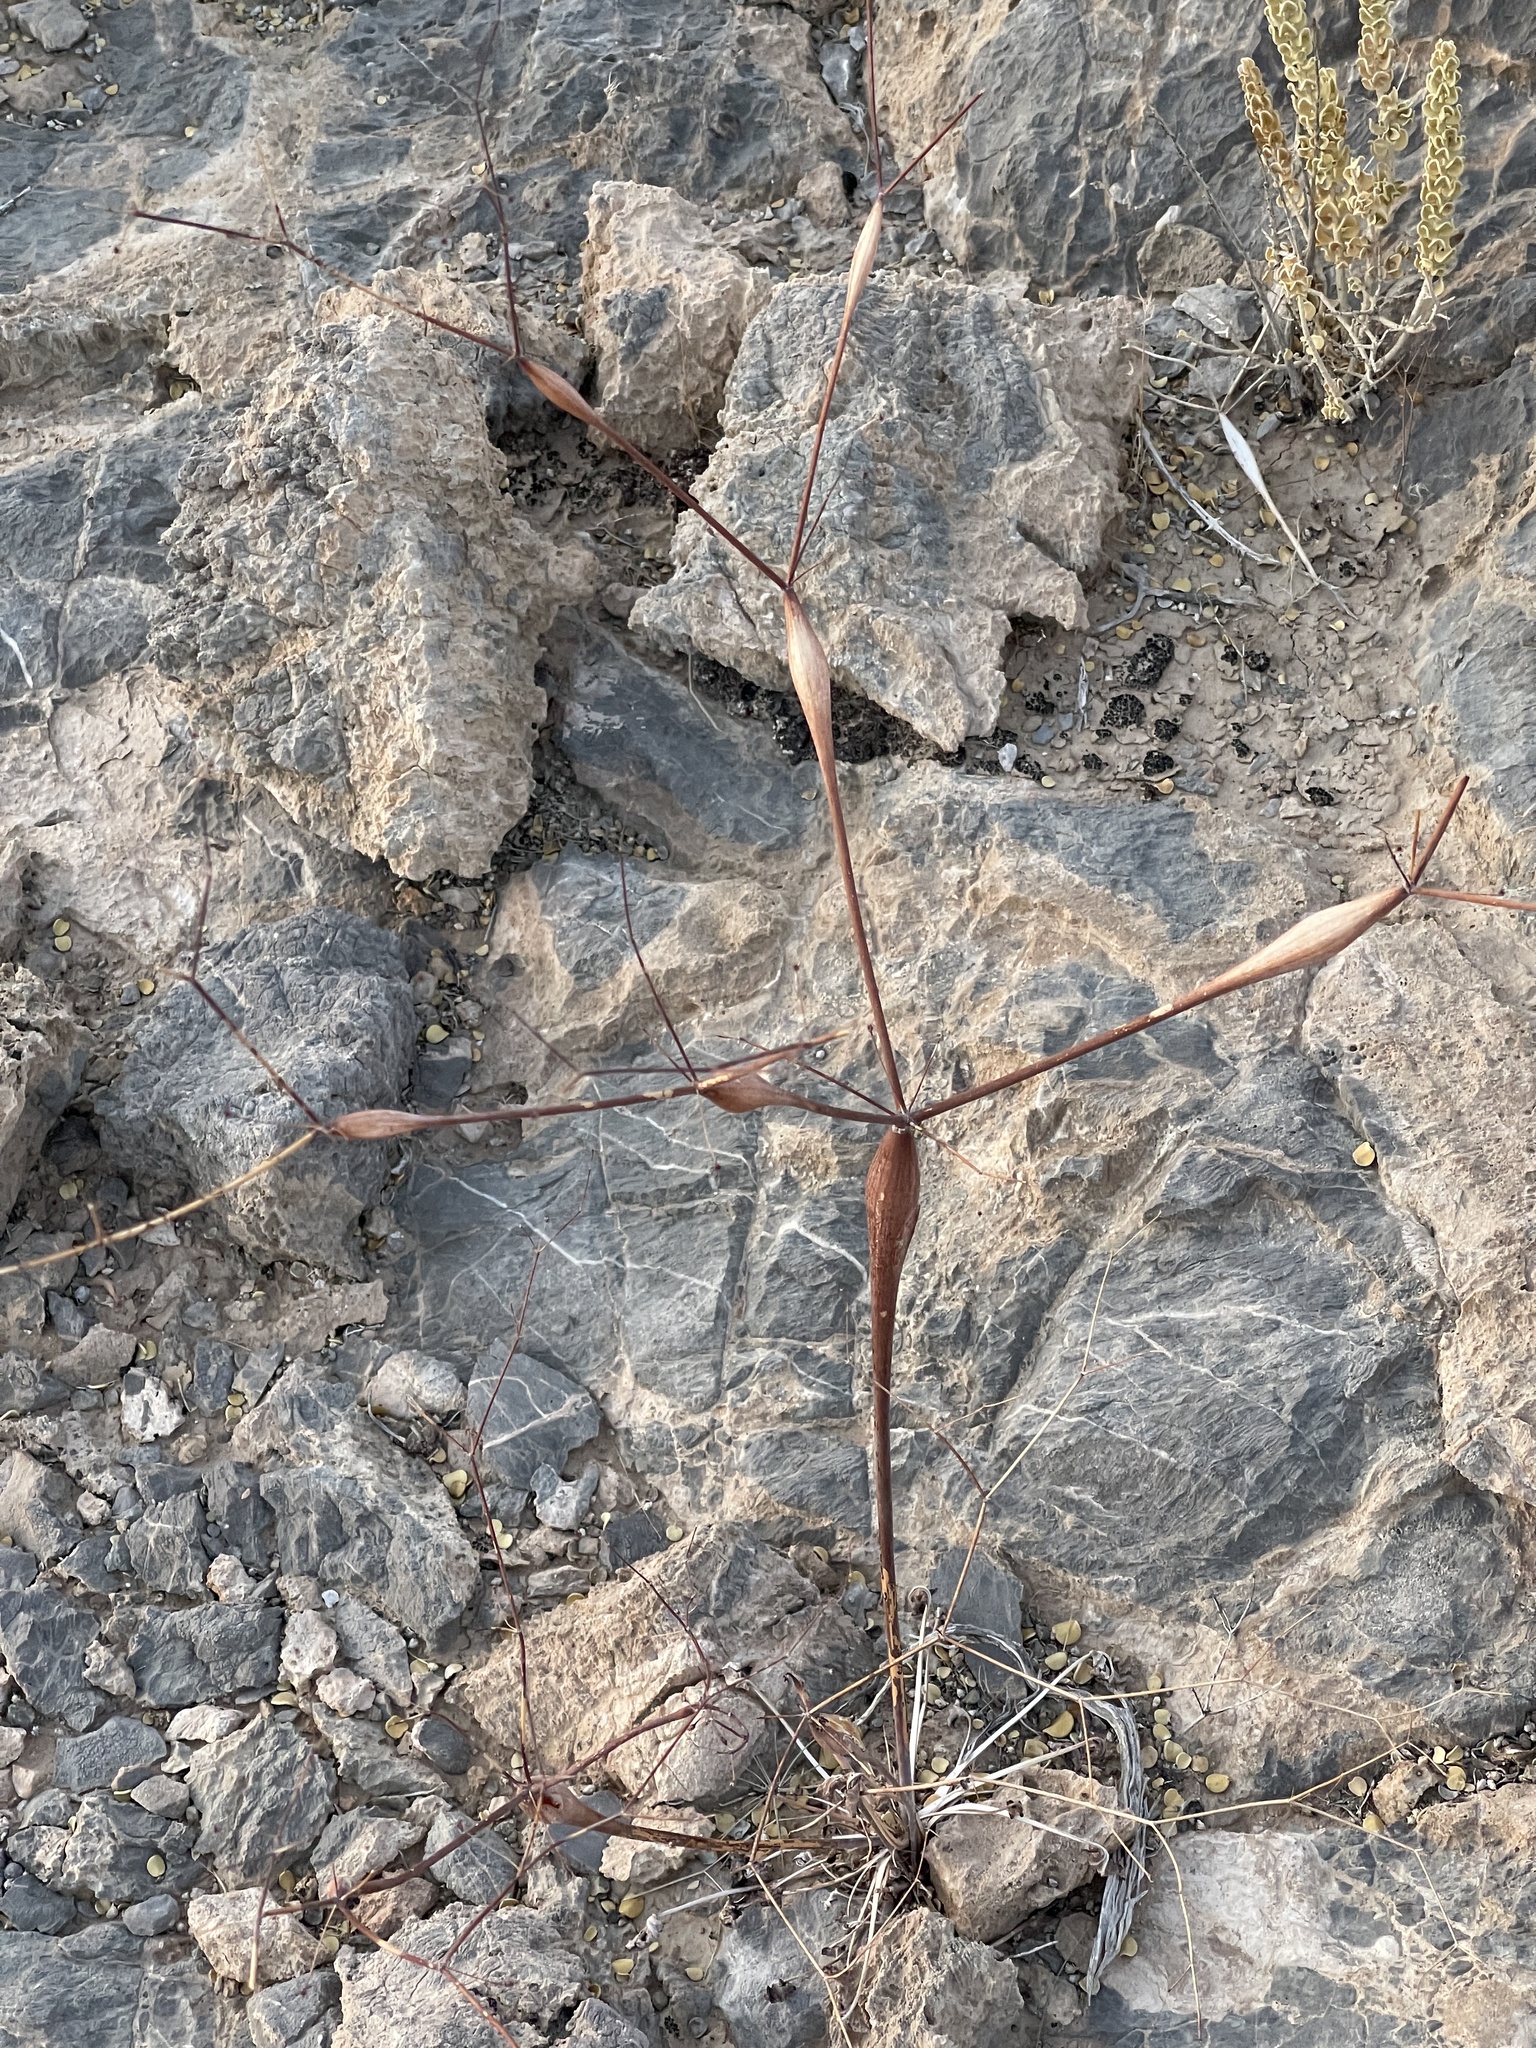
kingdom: Plantae
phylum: Tracheophyta
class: Magnoliopsida
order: Caryophyllales
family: Polygonaceae
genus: Eriogonum
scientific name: Eriogonum inflatum
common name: Desert trumpet
